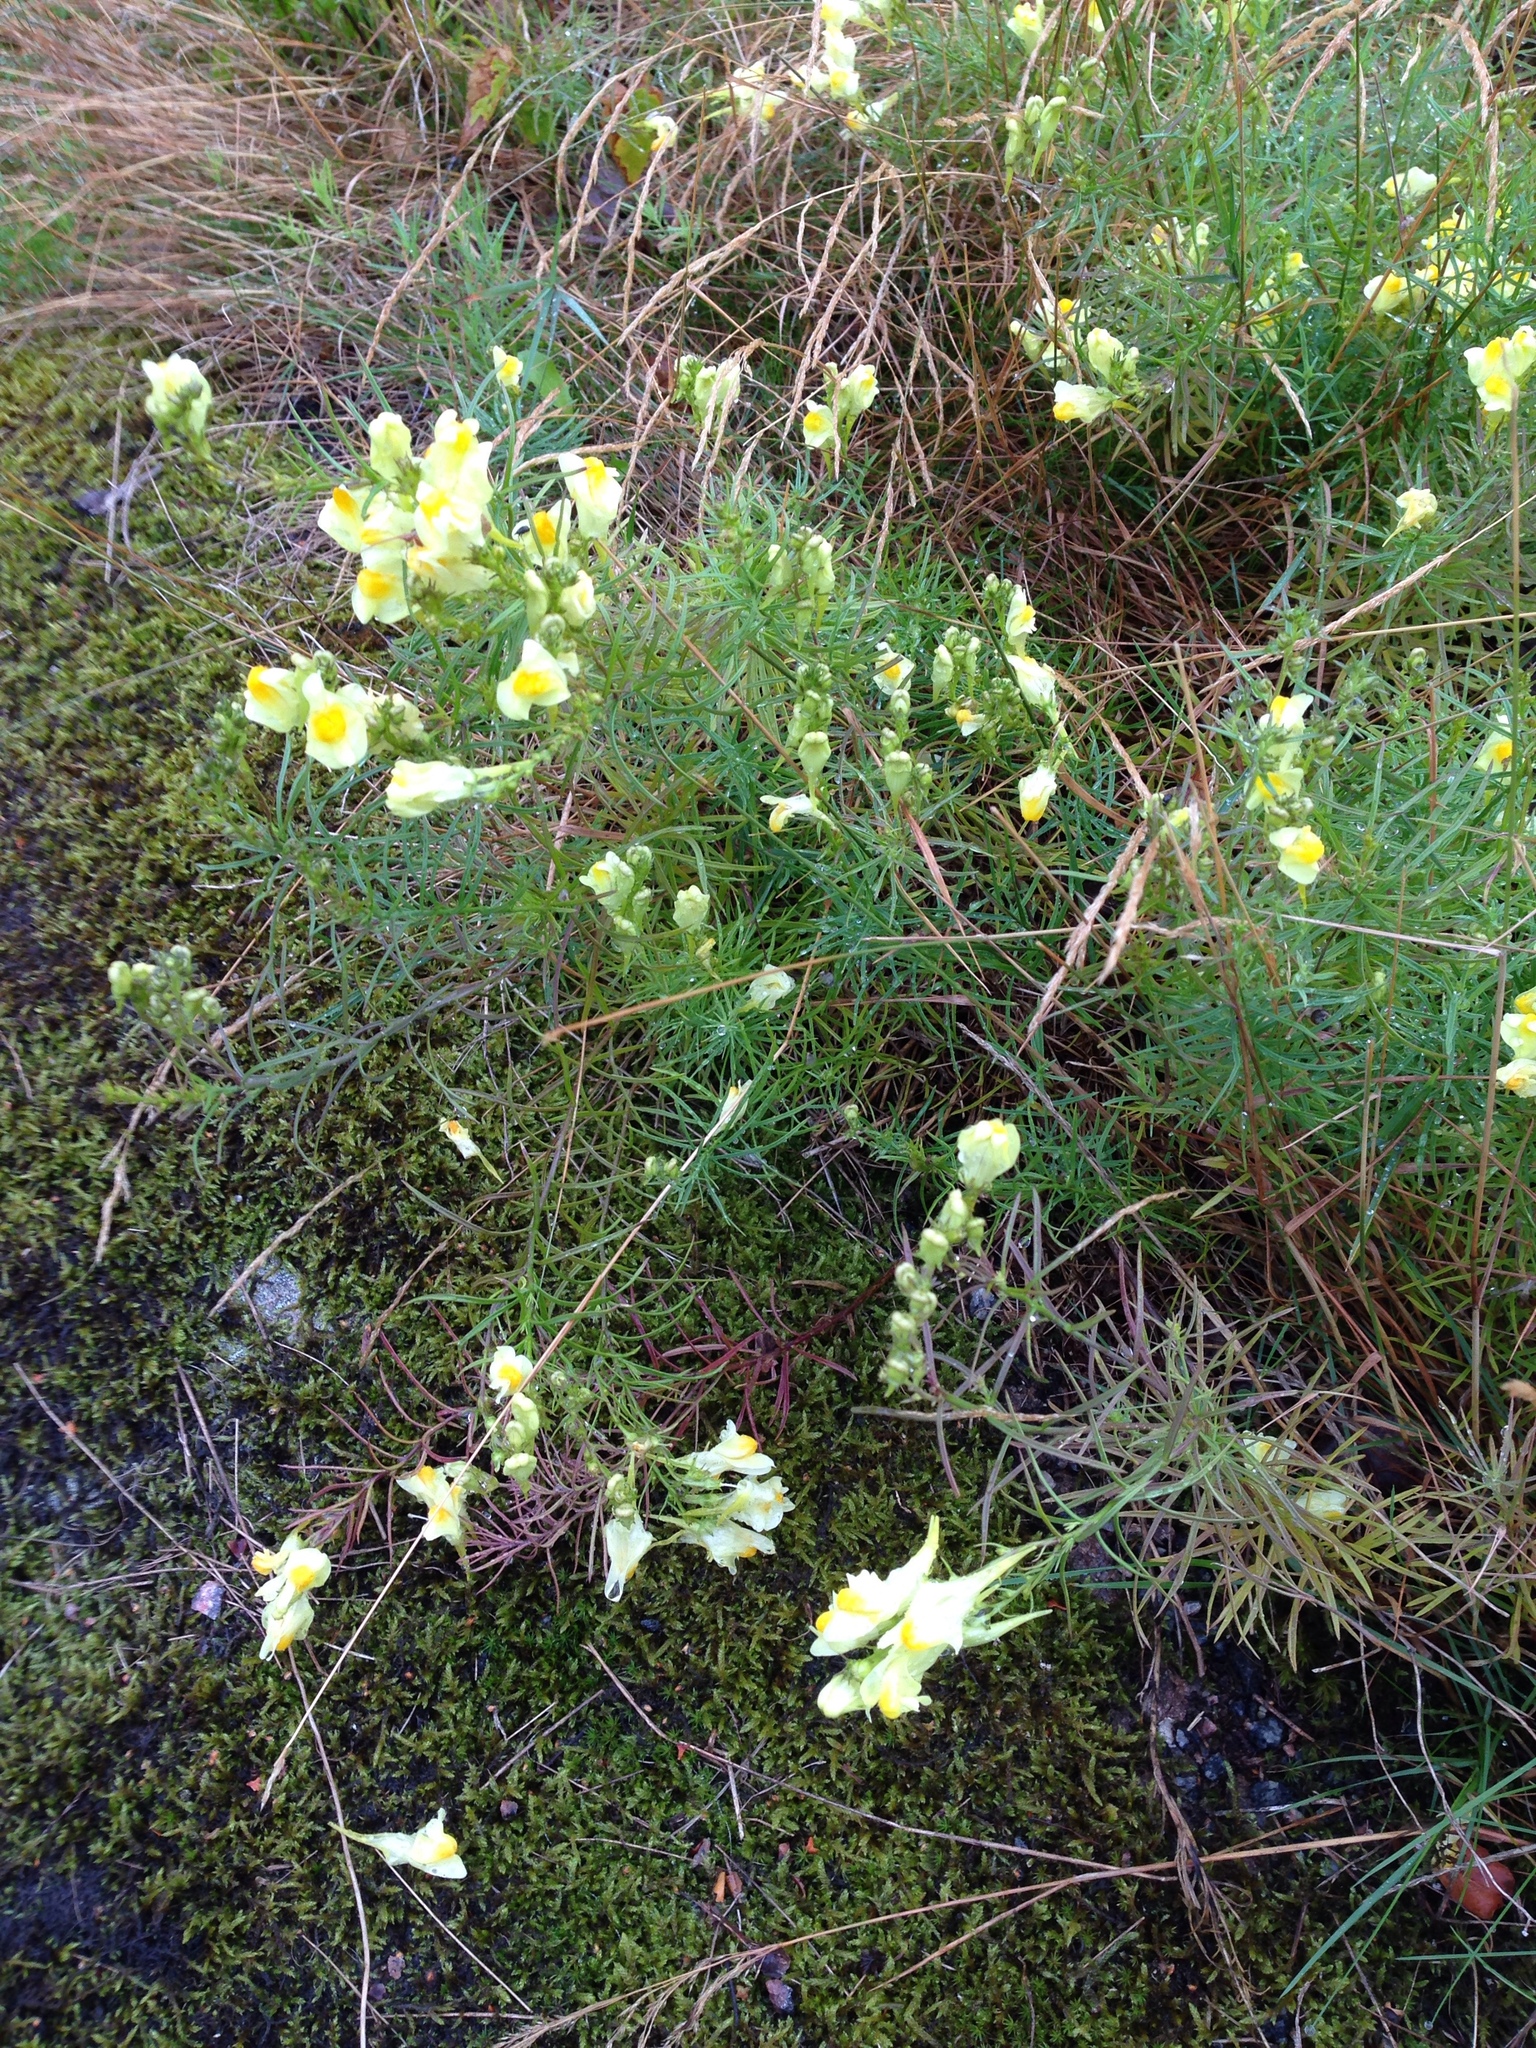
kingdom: Plantae
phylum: Tracheophyta
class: Magnoliopsida
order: Lamiales
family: Plantaginaceae
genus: Linaria
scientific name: Linaria vulgaris
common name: Butter and eggs
